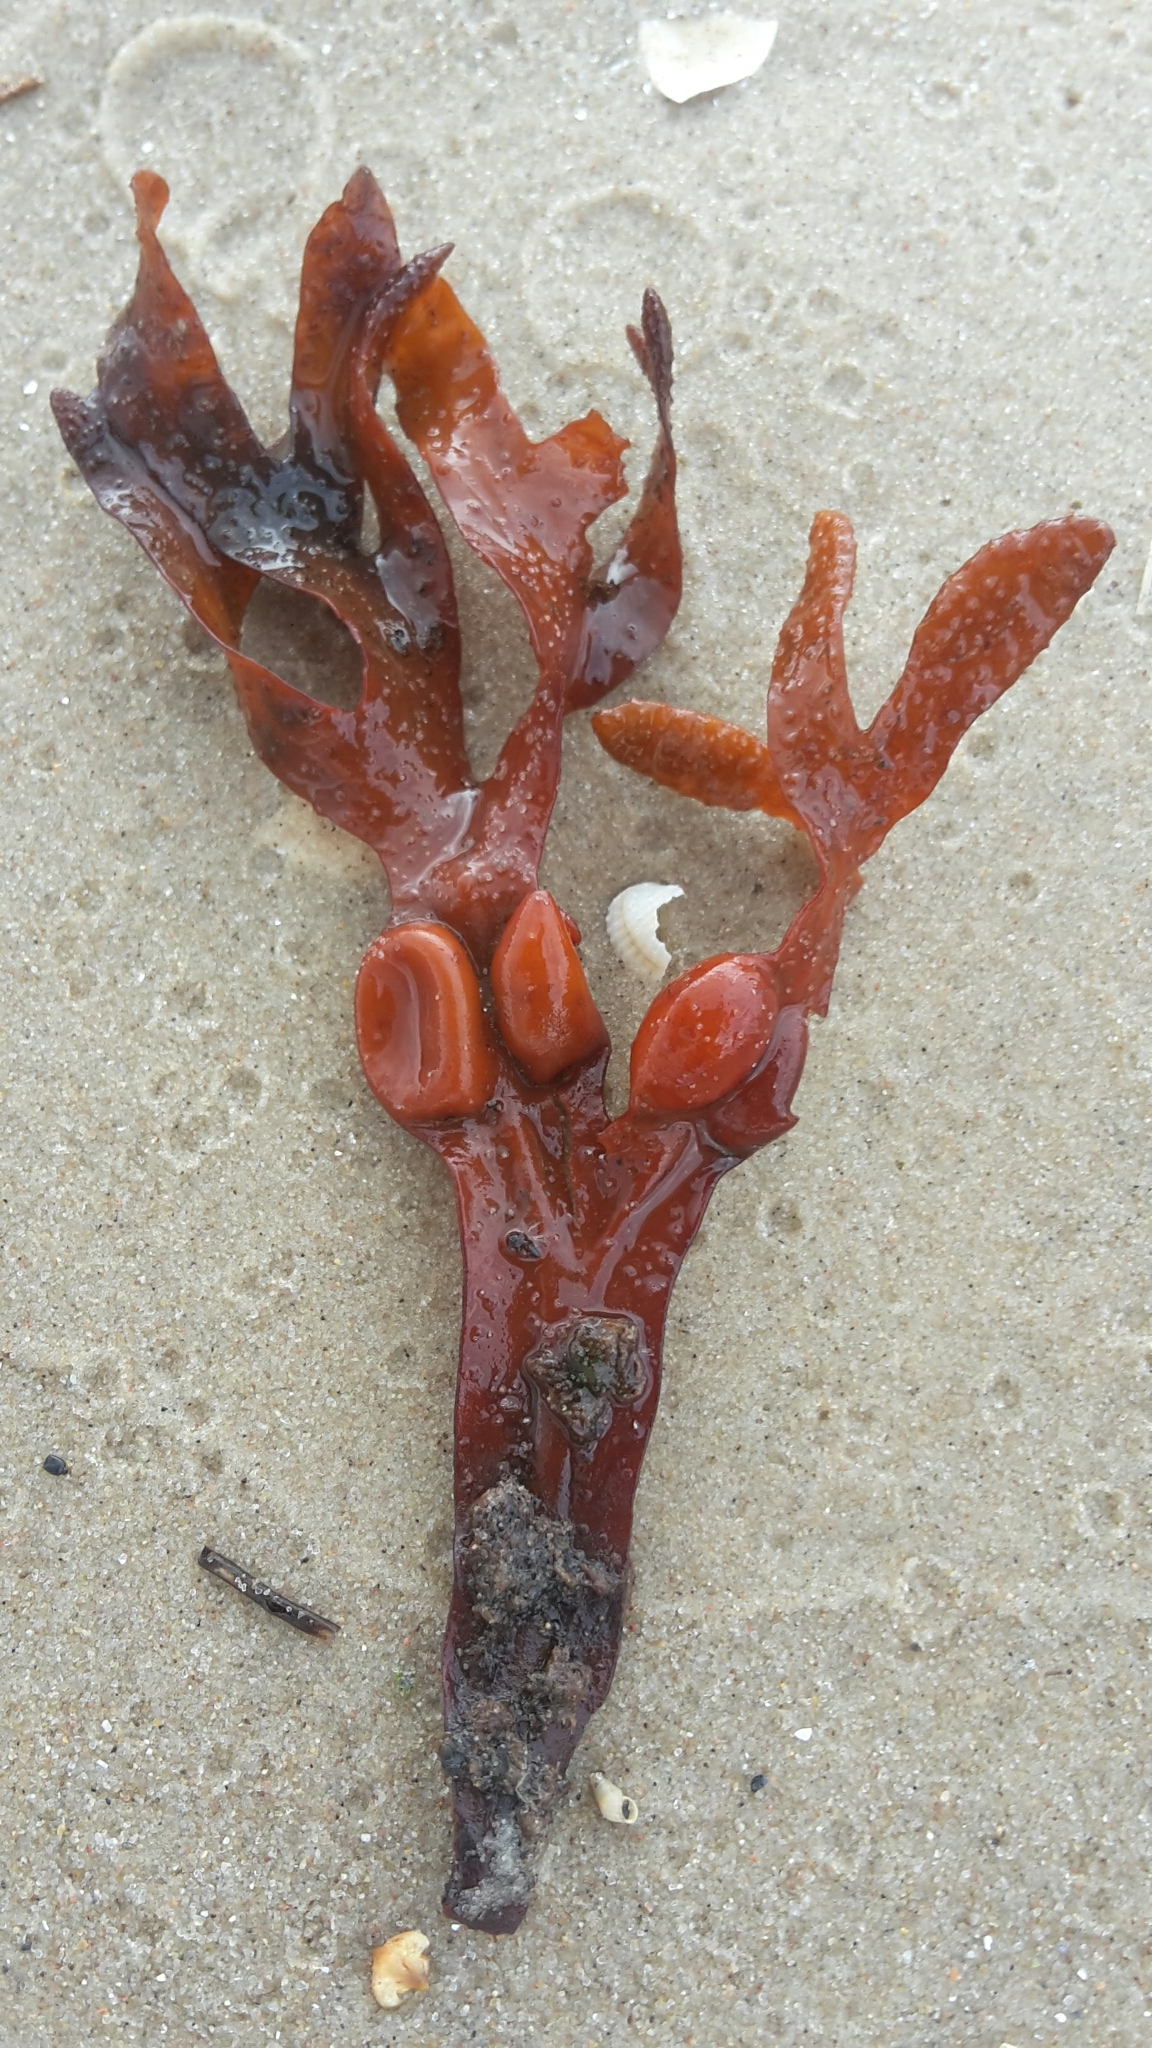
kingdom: Chromista
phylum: Ochrophyta
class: Phaeophyceae
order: Fucales
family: Fucaceae
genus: Fucus
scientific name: Fucus vesiculosus
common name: Bladder wrack
